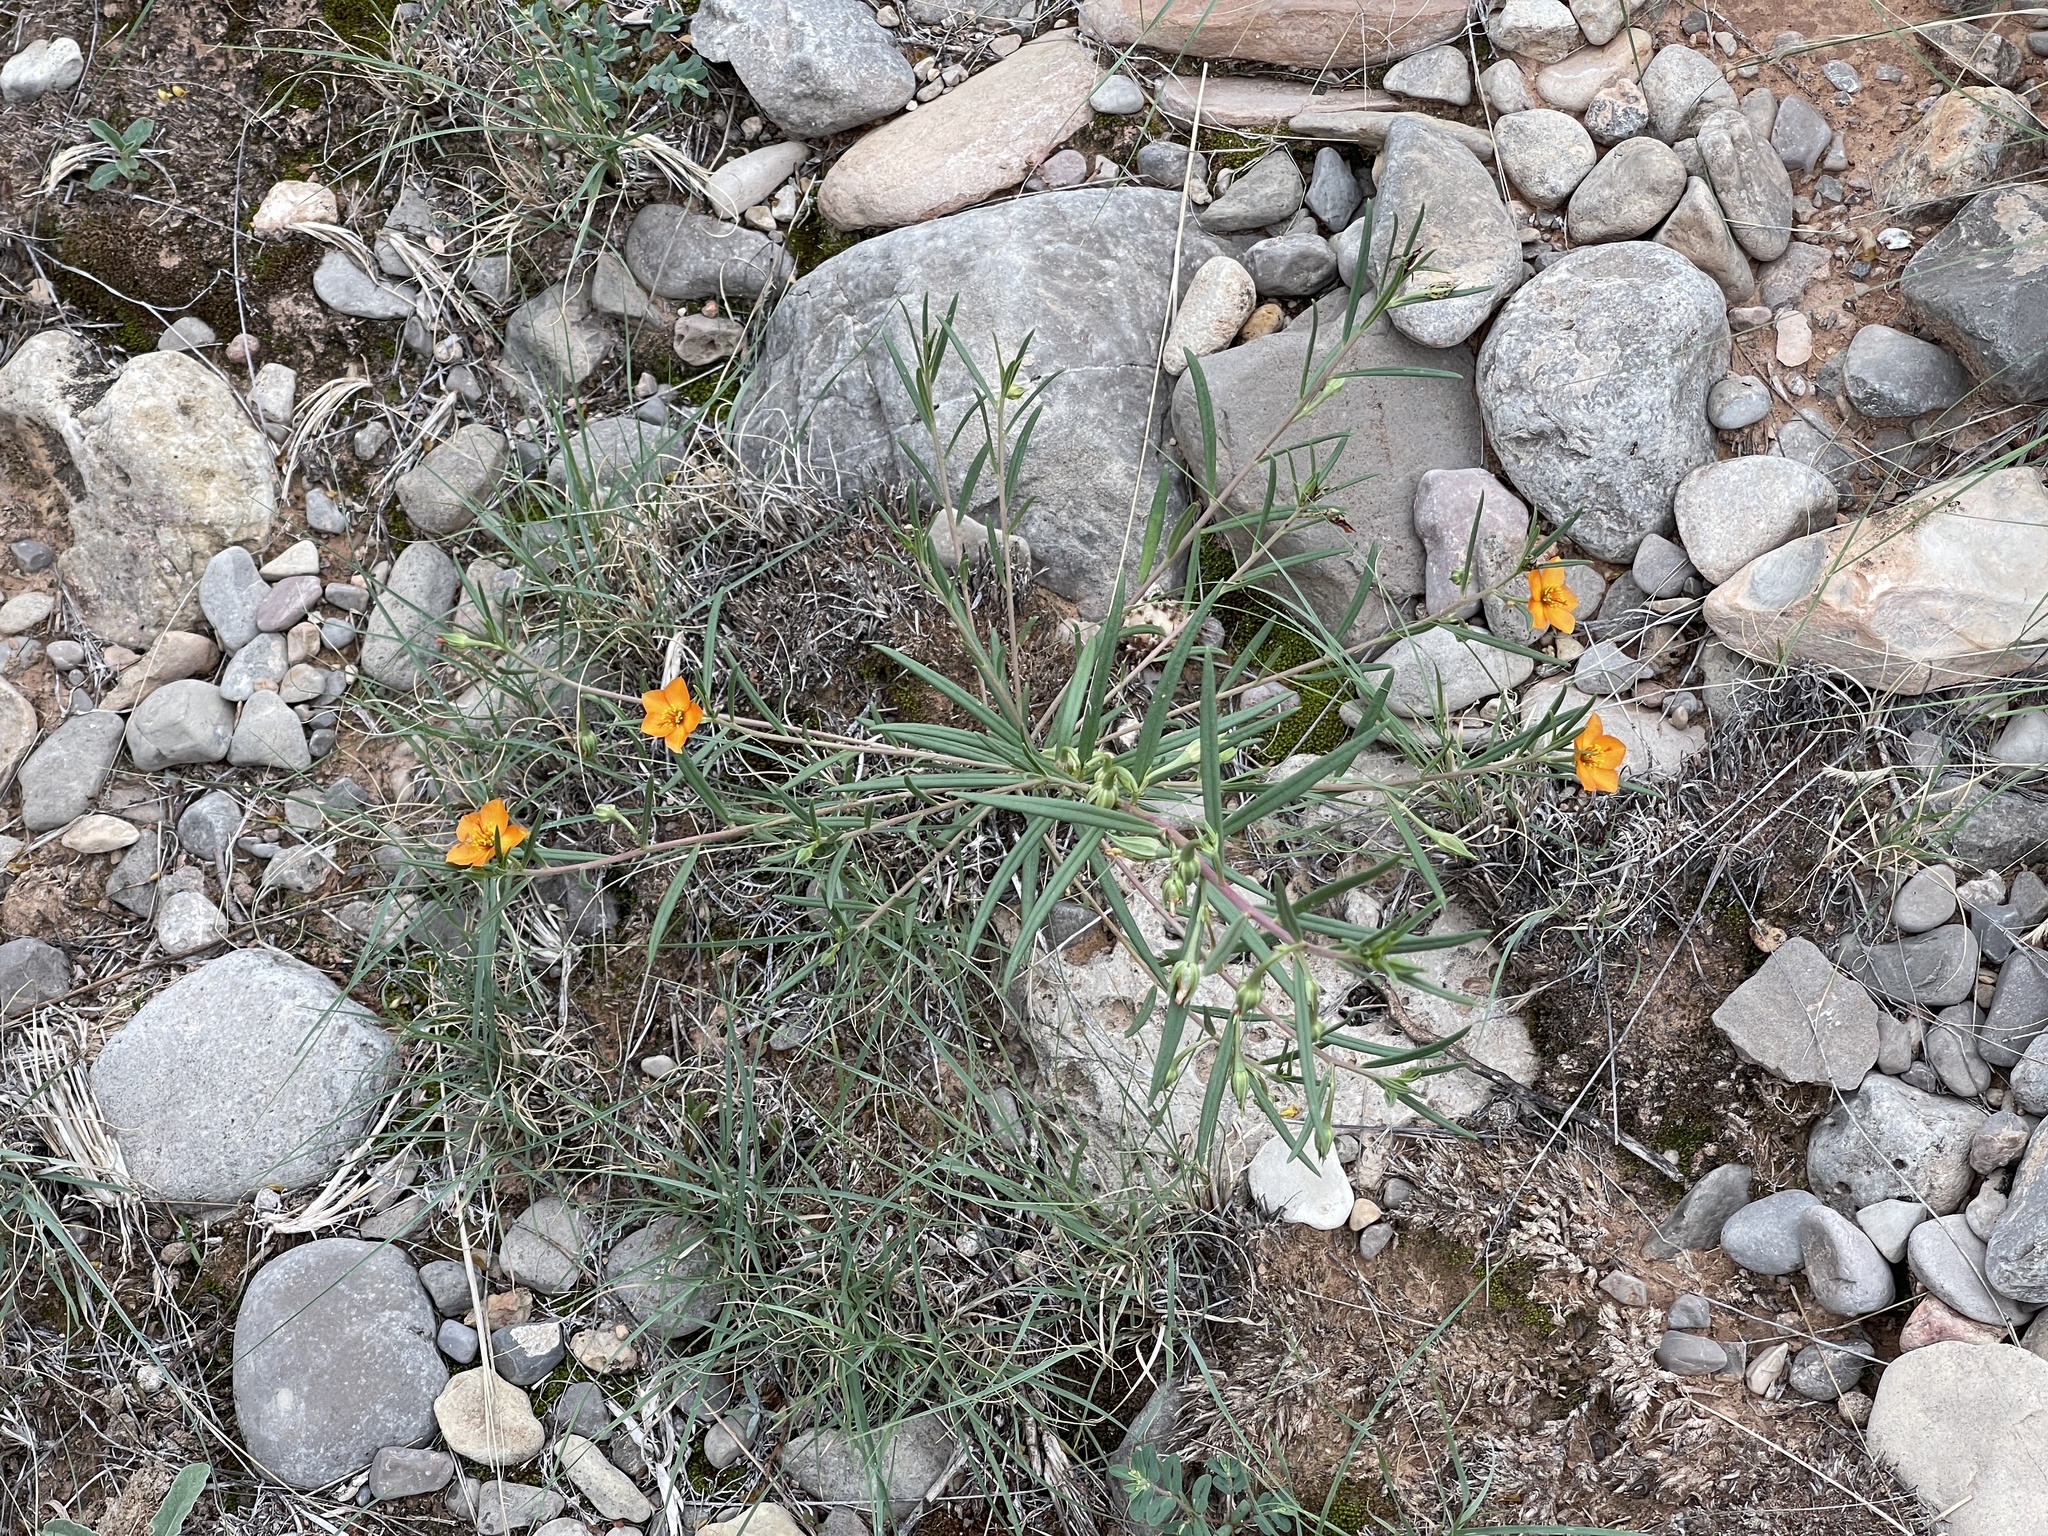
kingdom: Plantae
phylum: Tracheophyta
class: Magnoliopsida
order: Caryophyllales
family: Montiaceae
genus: Phemeranthus
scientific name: Phemeranthus aurantiacus
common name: Orange fameflower
